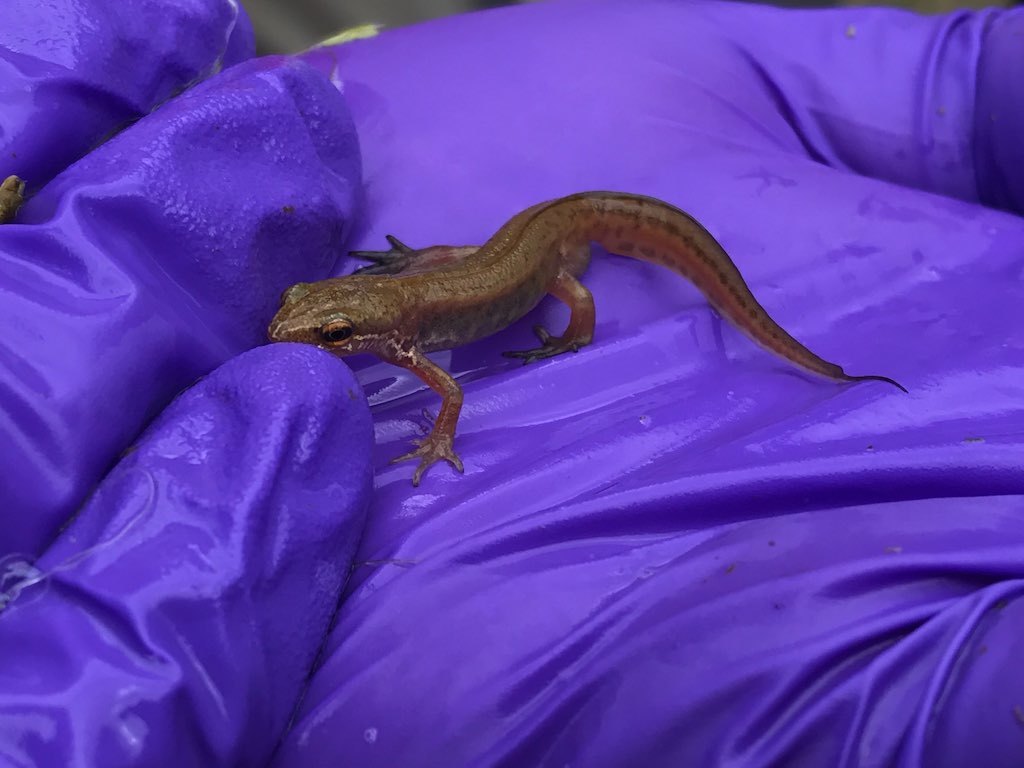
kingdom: Animalia
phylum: Chordata
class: Amphibia
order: Caudata
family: Salamandridae
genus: Lissotriton
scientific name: Lissotriton helveticus
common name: Palmate newt
